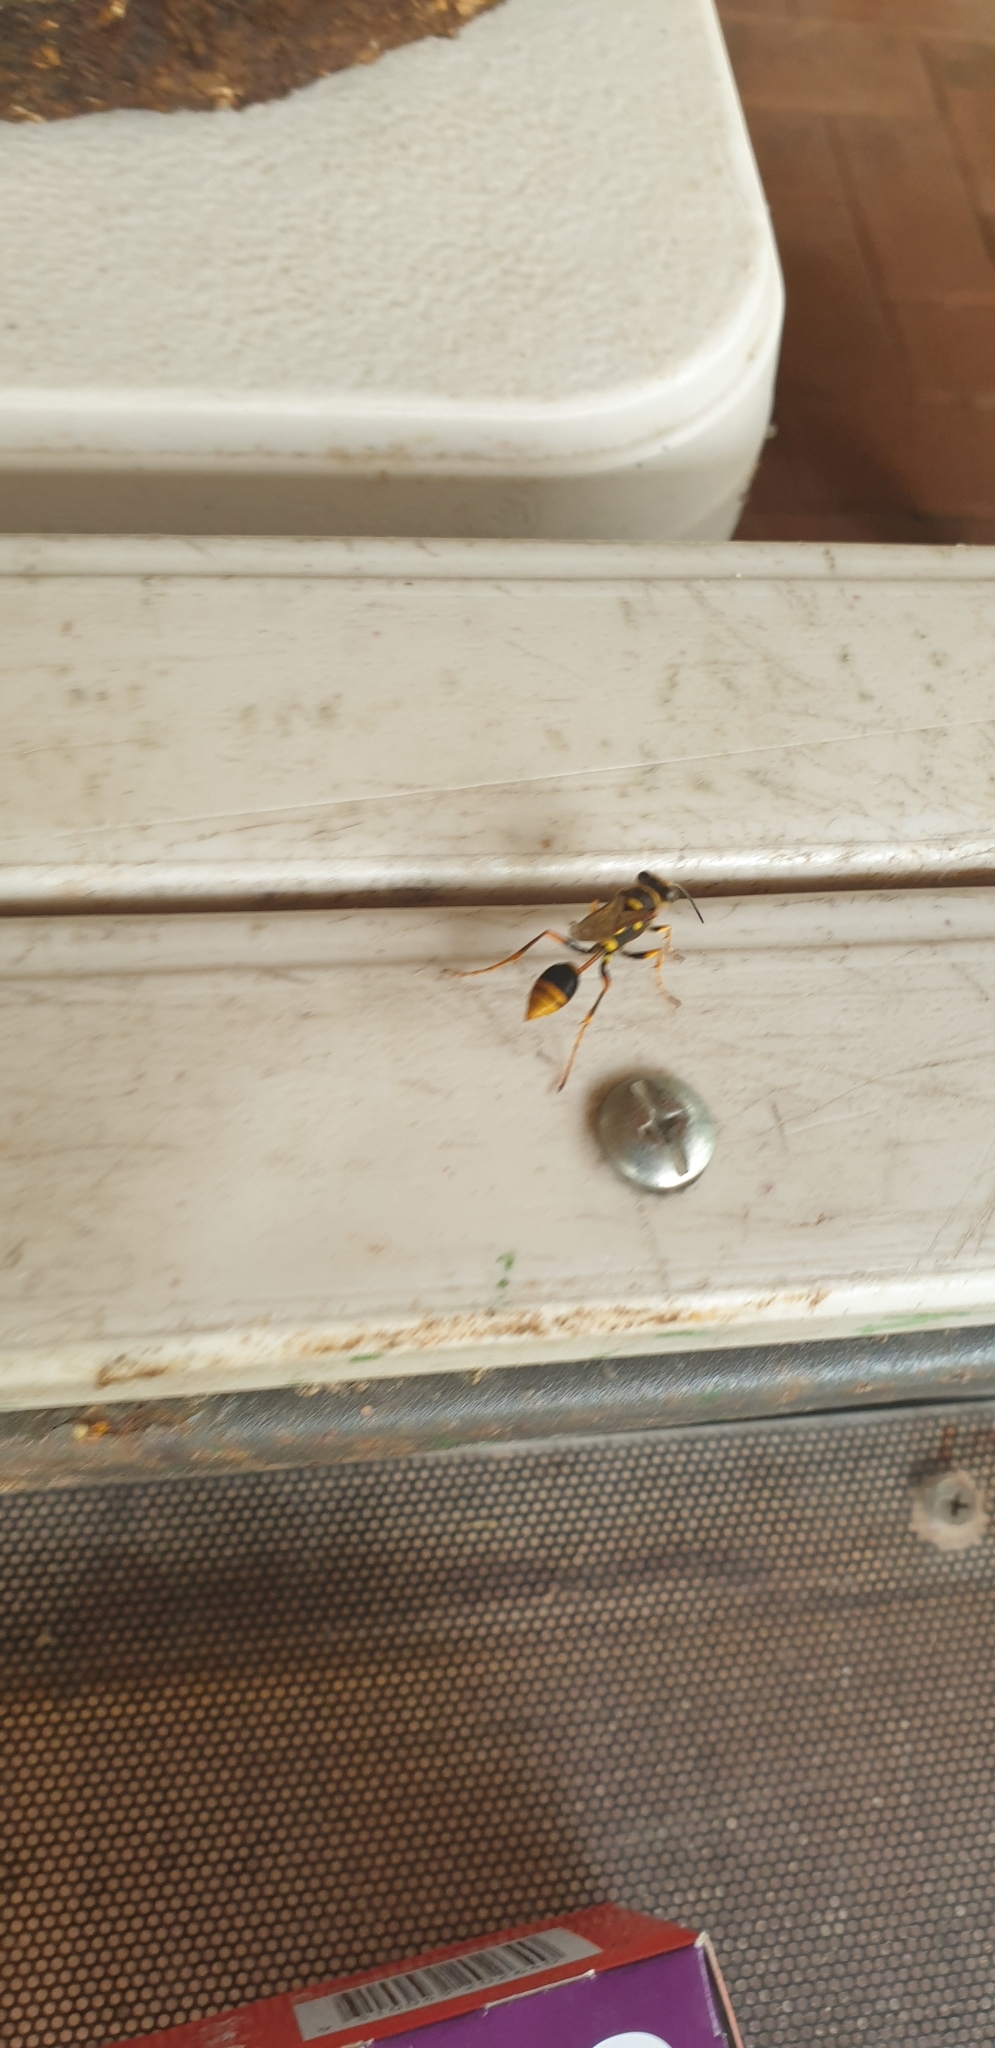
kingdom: Animalia
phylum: Arthropoda
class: Insecta
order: Hymenoptera
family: Sphecidae
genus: Sceliphron
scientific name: Sceliphron formosum
